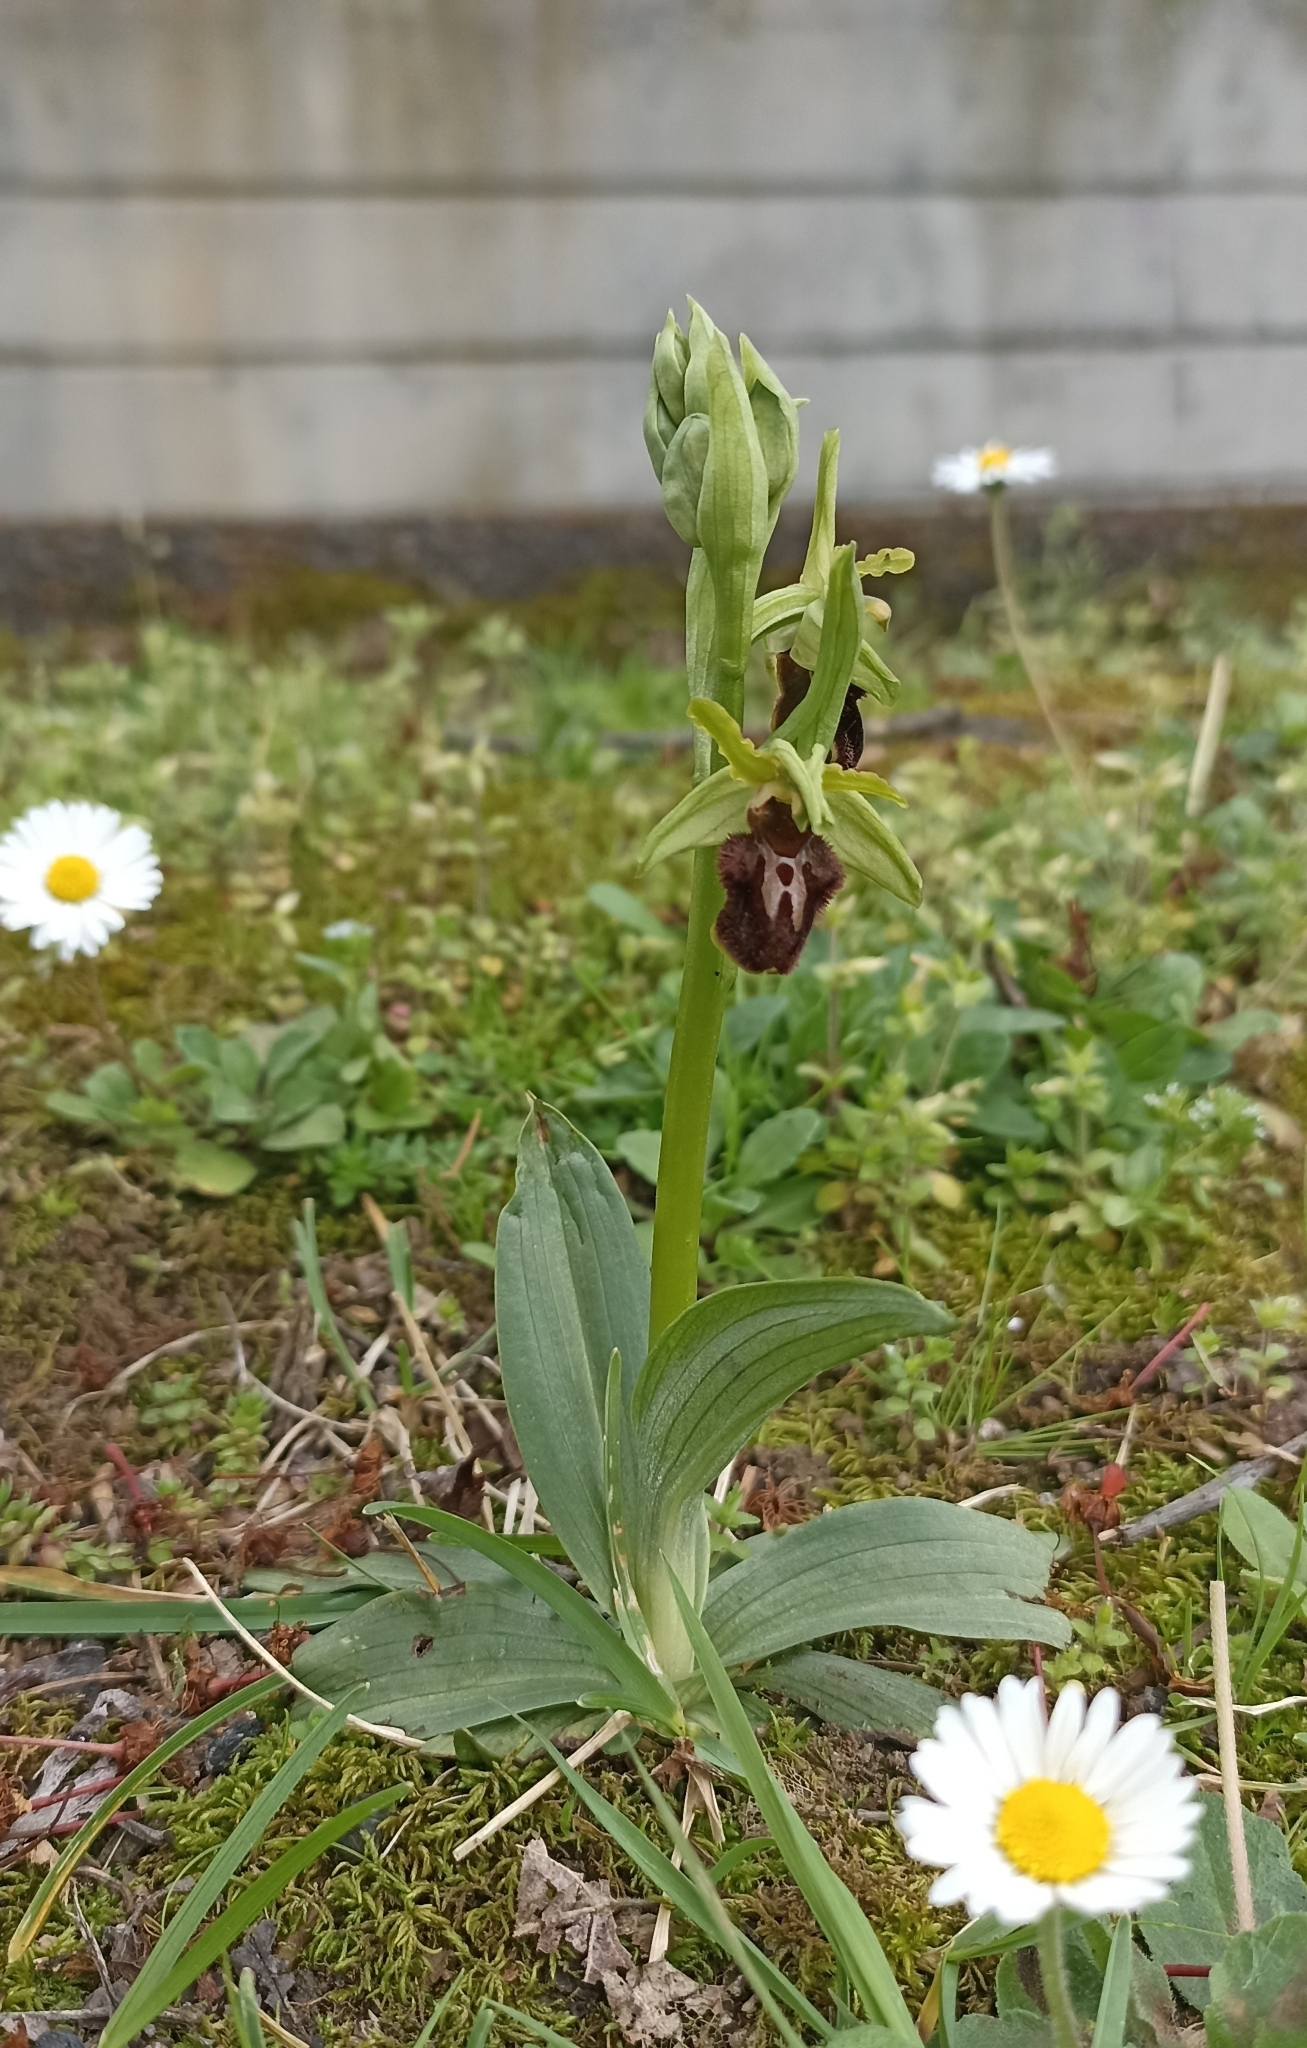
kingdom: Plantae
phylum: Tracheophyta
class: Liliopsida
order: Asparagales
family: Orchidaceae
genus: Ophrys
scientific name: Ophrys sphegodes
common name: Early spider-orchid
